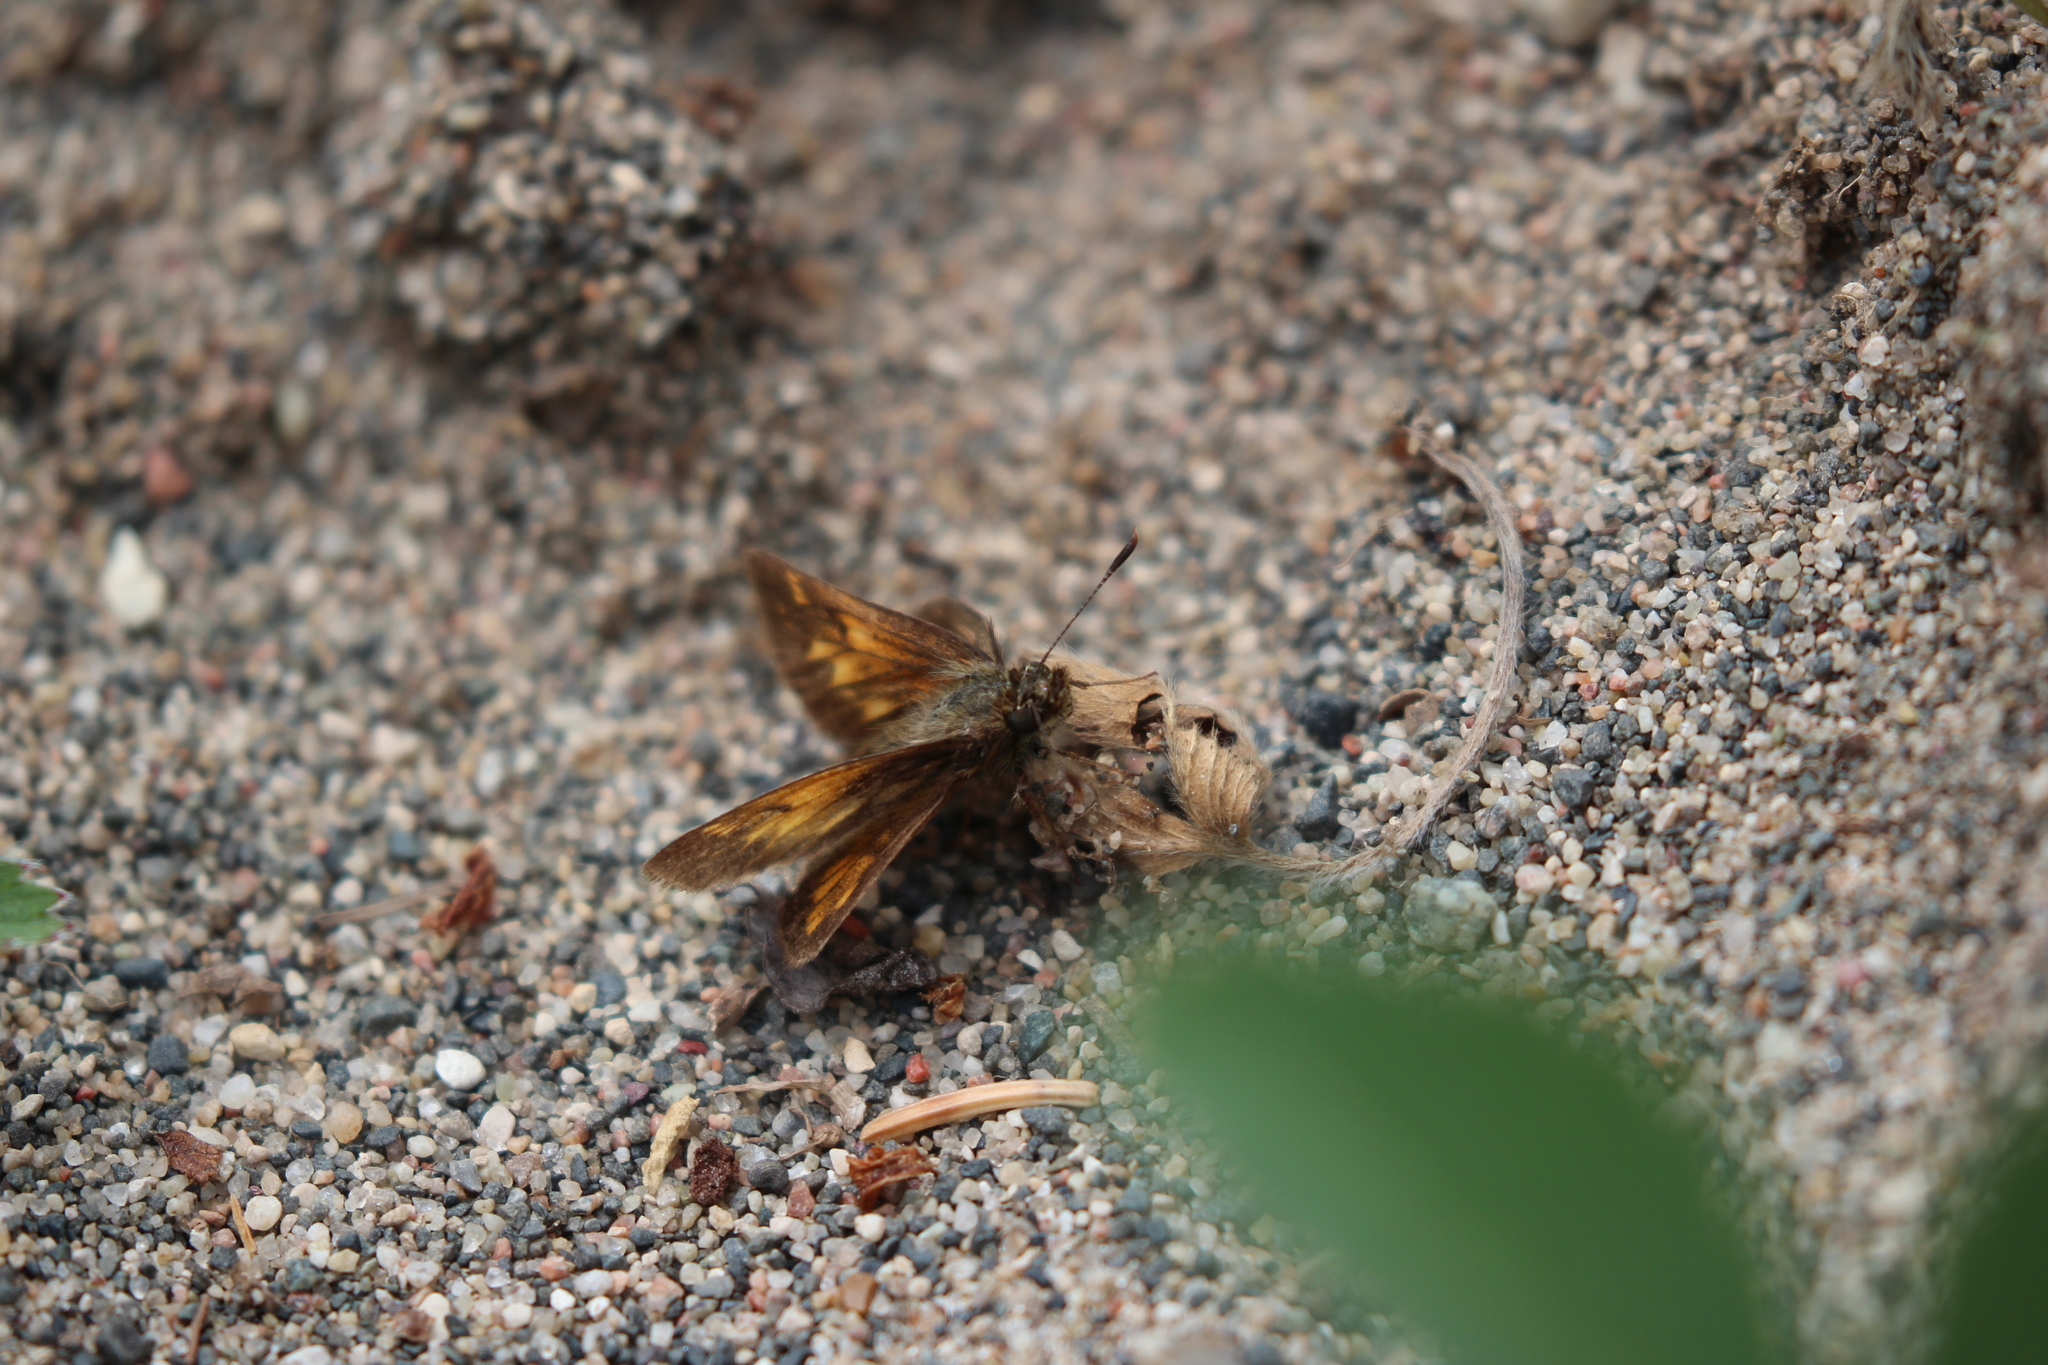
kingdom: Animalia
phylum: Arthropoda
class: Insecta
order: Lepidoptera
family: Hesperiidae
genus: Lon
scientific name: Lon hobomok
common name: Hobomok skipper
